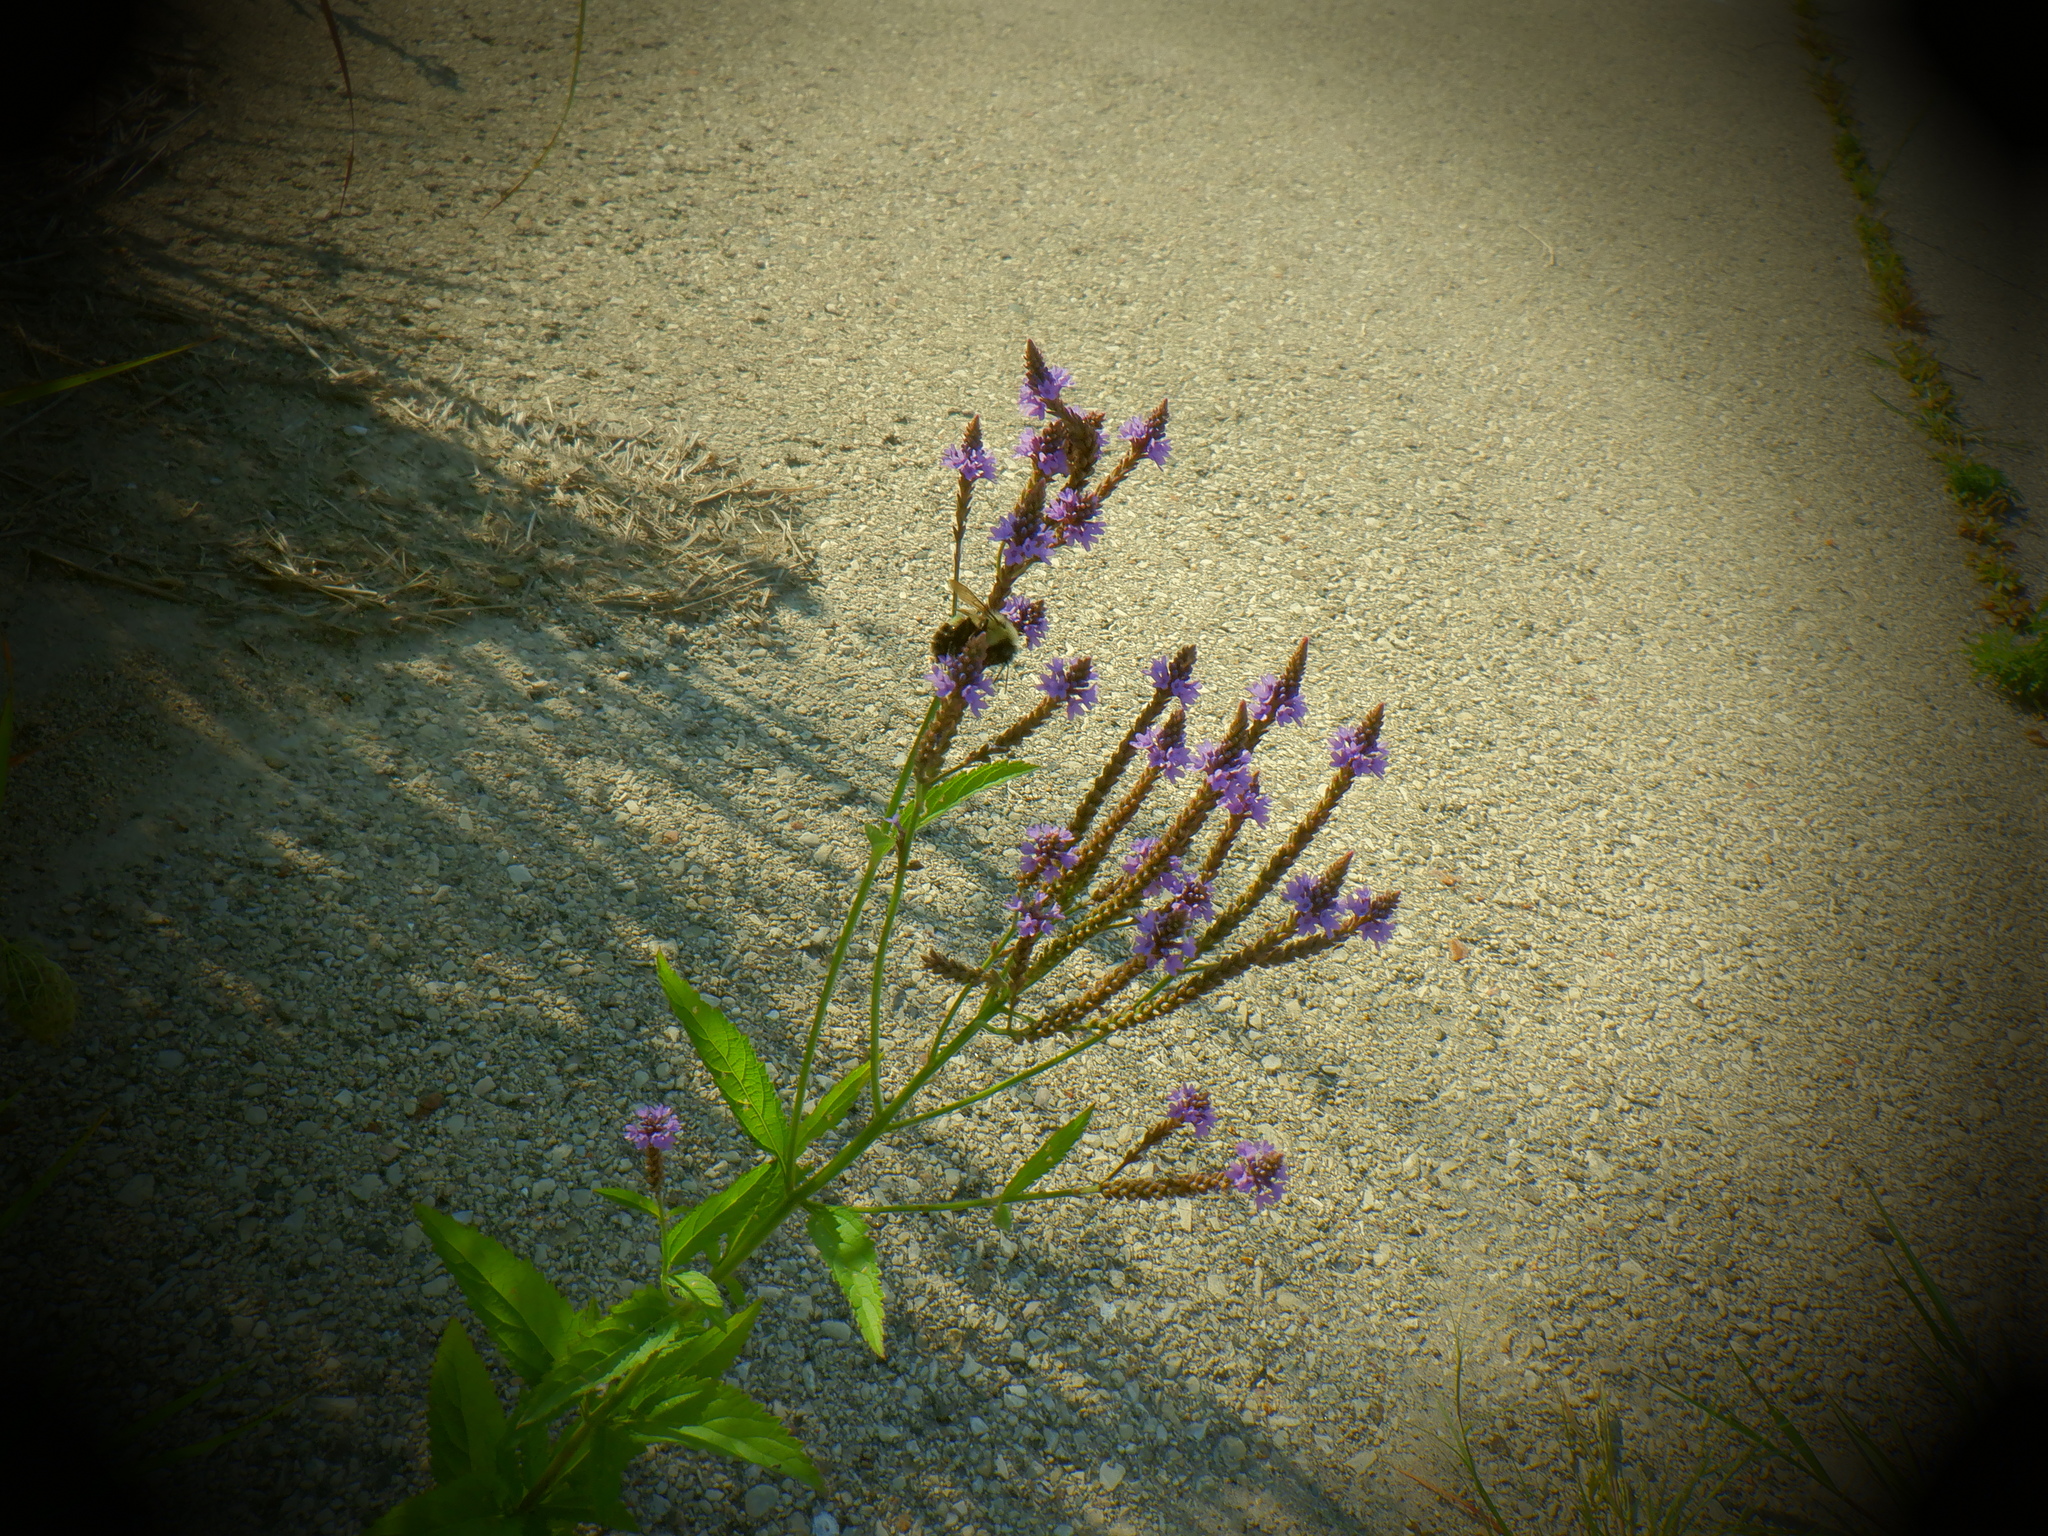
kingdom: Plantae
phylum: Tracheophyta
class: Magnoliopsida
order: Lamiales
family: Verbenaceae
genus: Verbena
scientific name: Verbena hastata
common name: American blue vervain
